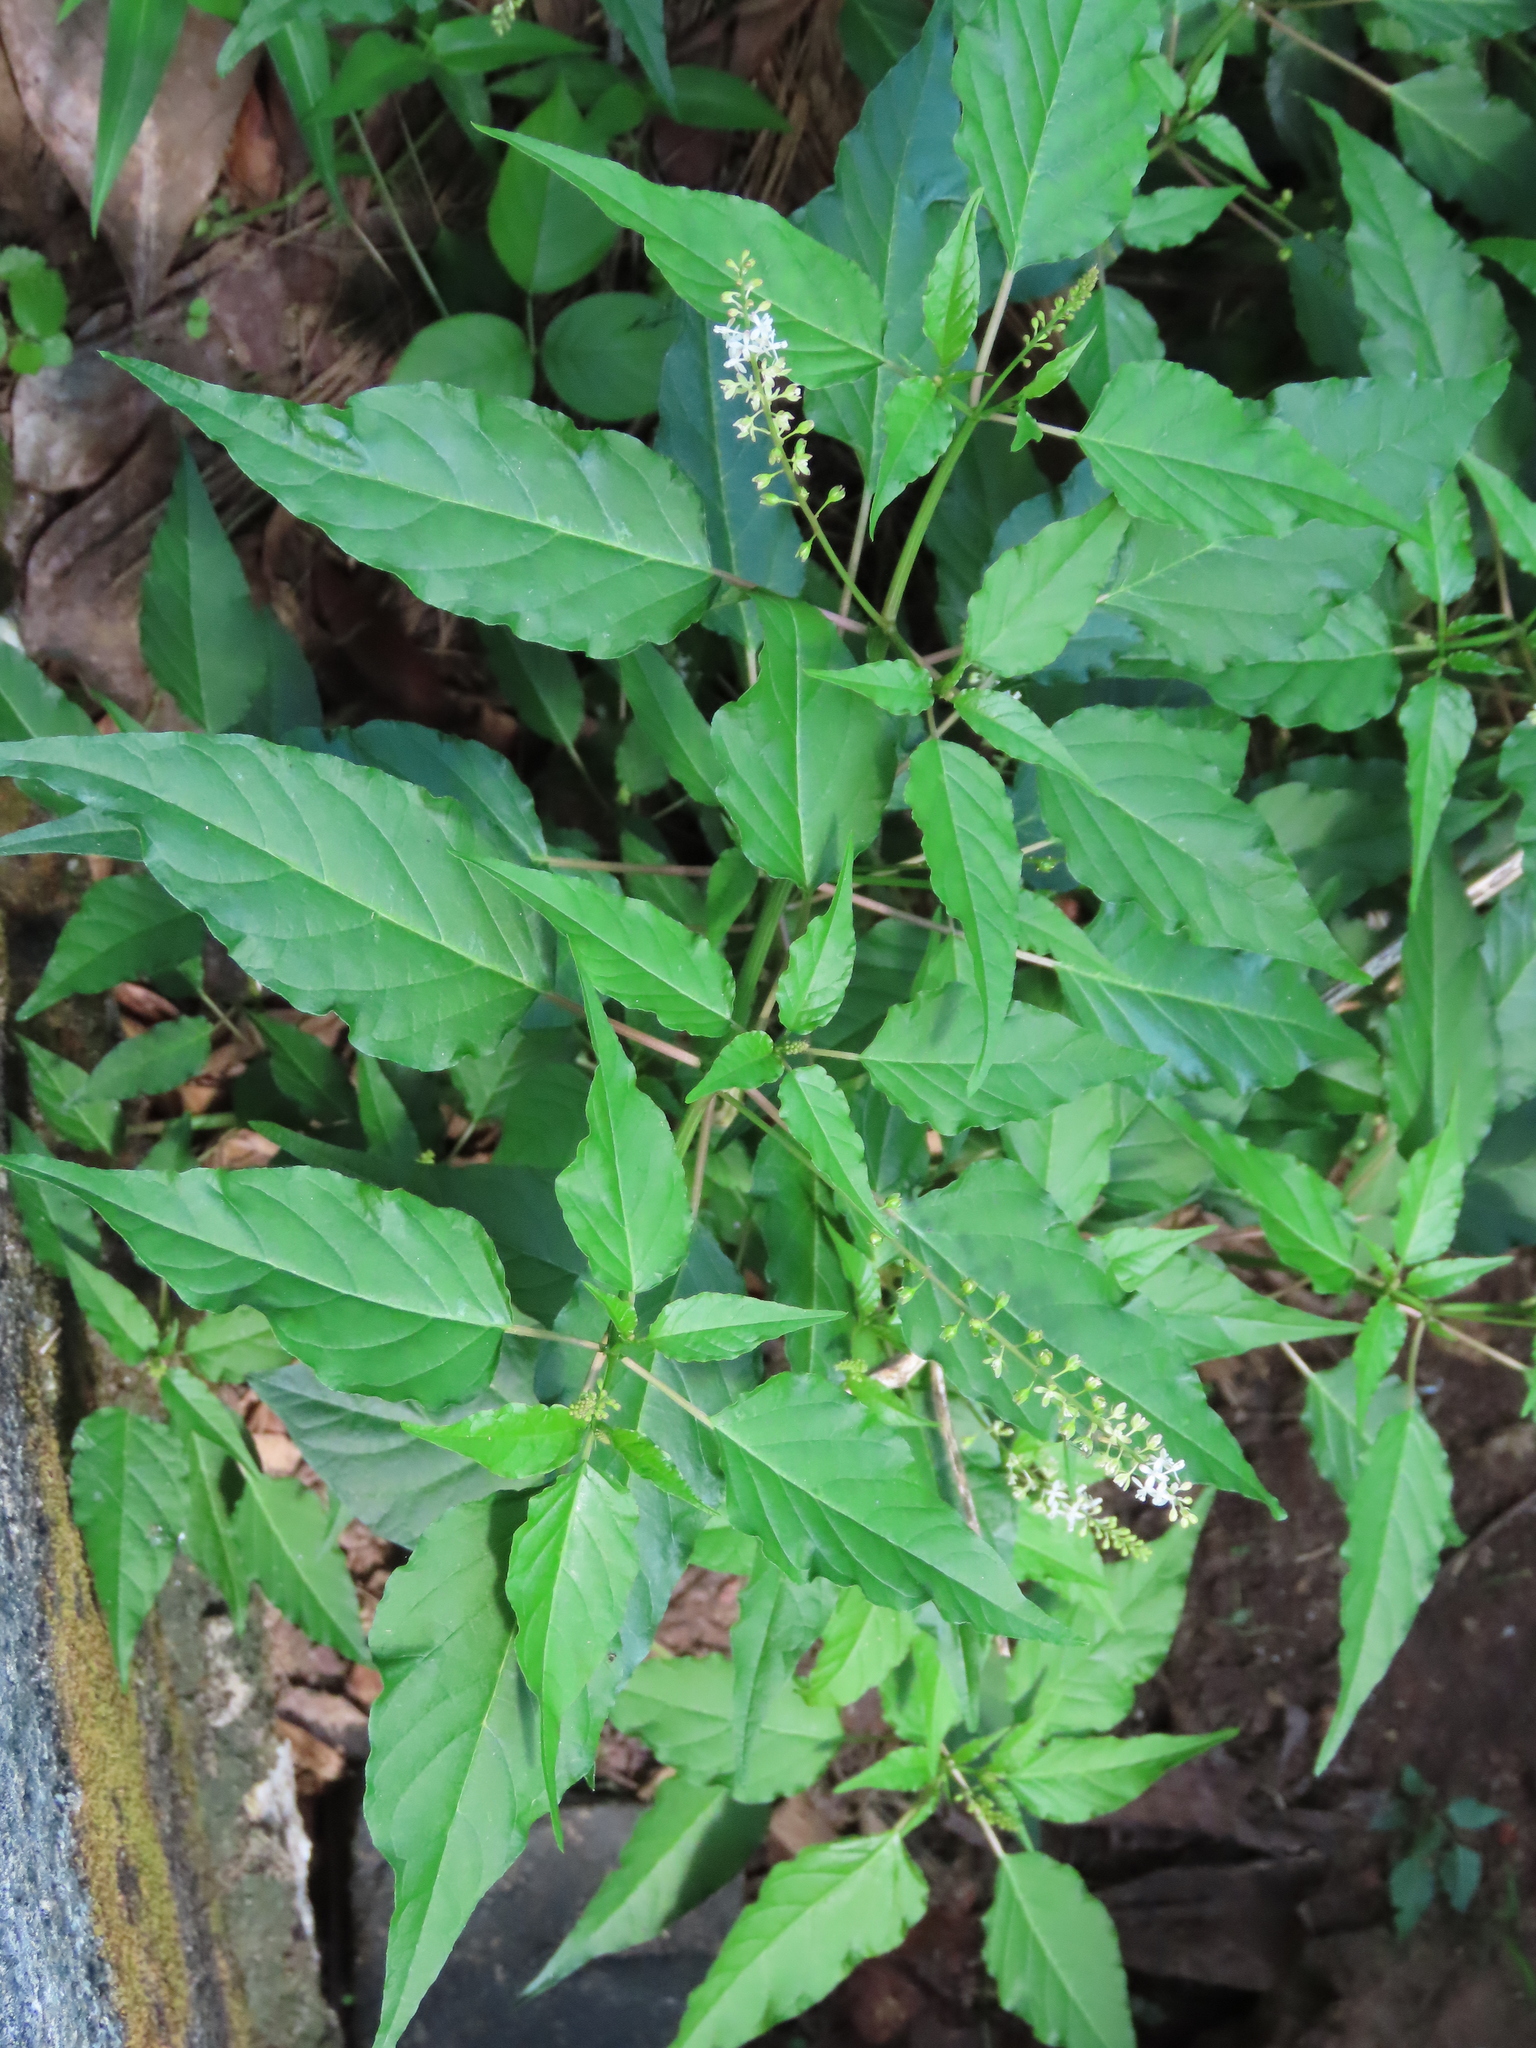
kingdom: Plantae
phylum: Tracheophyta
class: Magnoliopsida
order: Caryophyllales
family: Phytolaccaceae
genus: Rivina
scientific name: Rivina humilis
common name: Rougeplant
